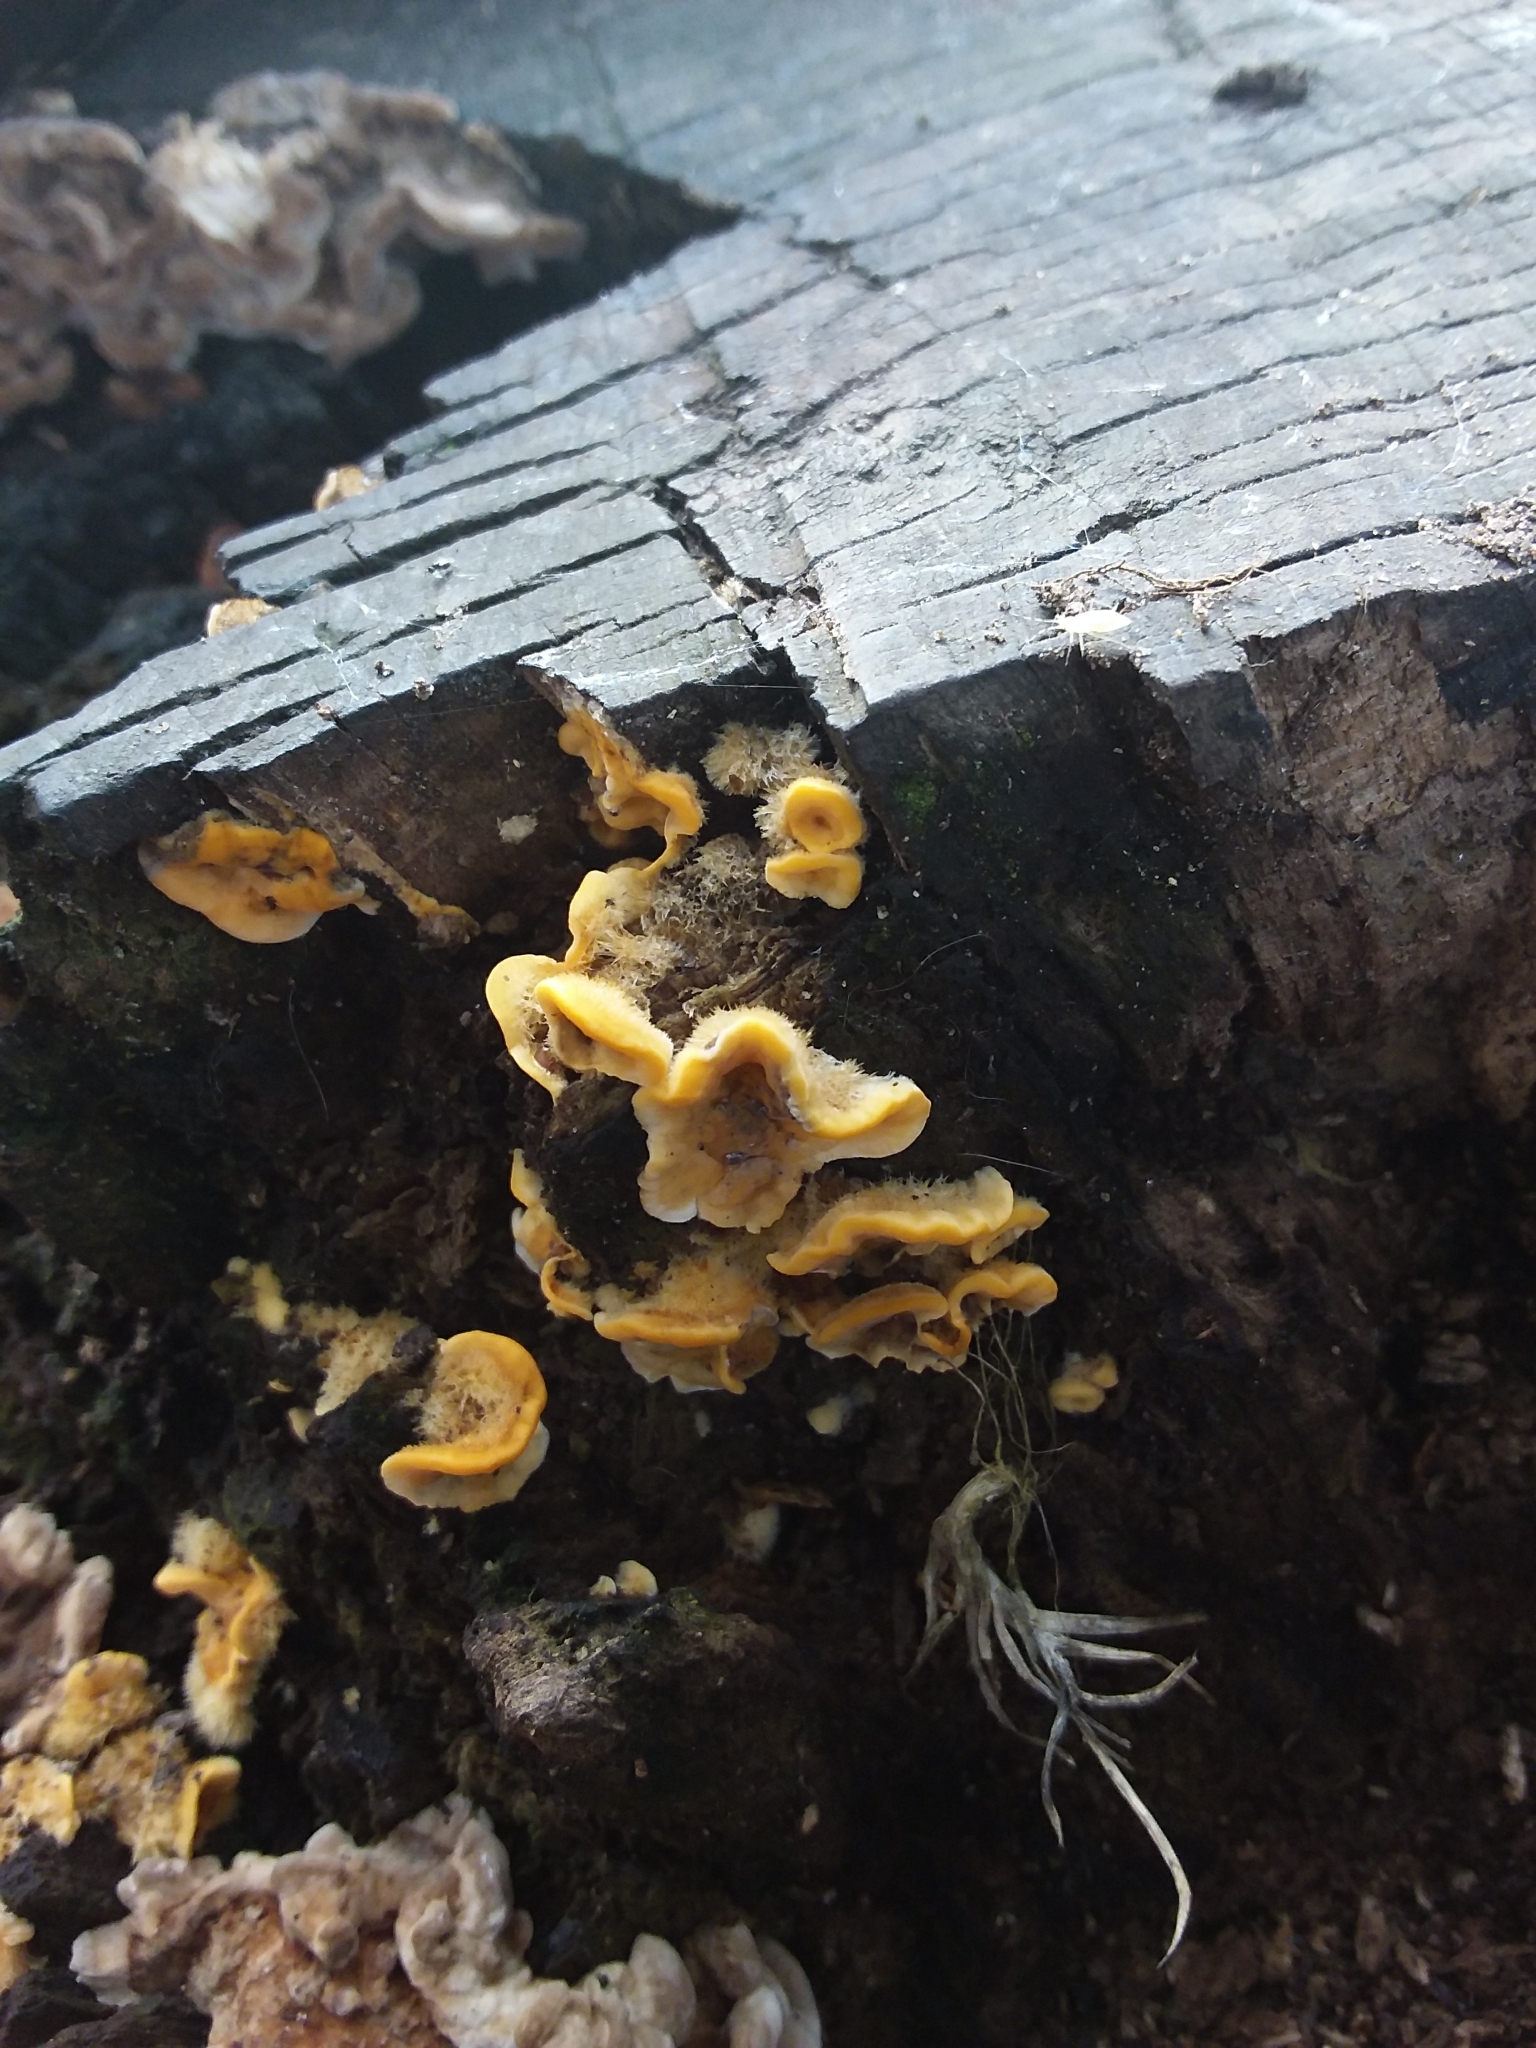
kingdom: Fungi
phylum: Basidiomycota
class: Agaricomycetes
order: Russulales
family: Stereaceae
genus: Stereum
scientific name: Stereum hirsutum
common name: Hairy curtain crust
